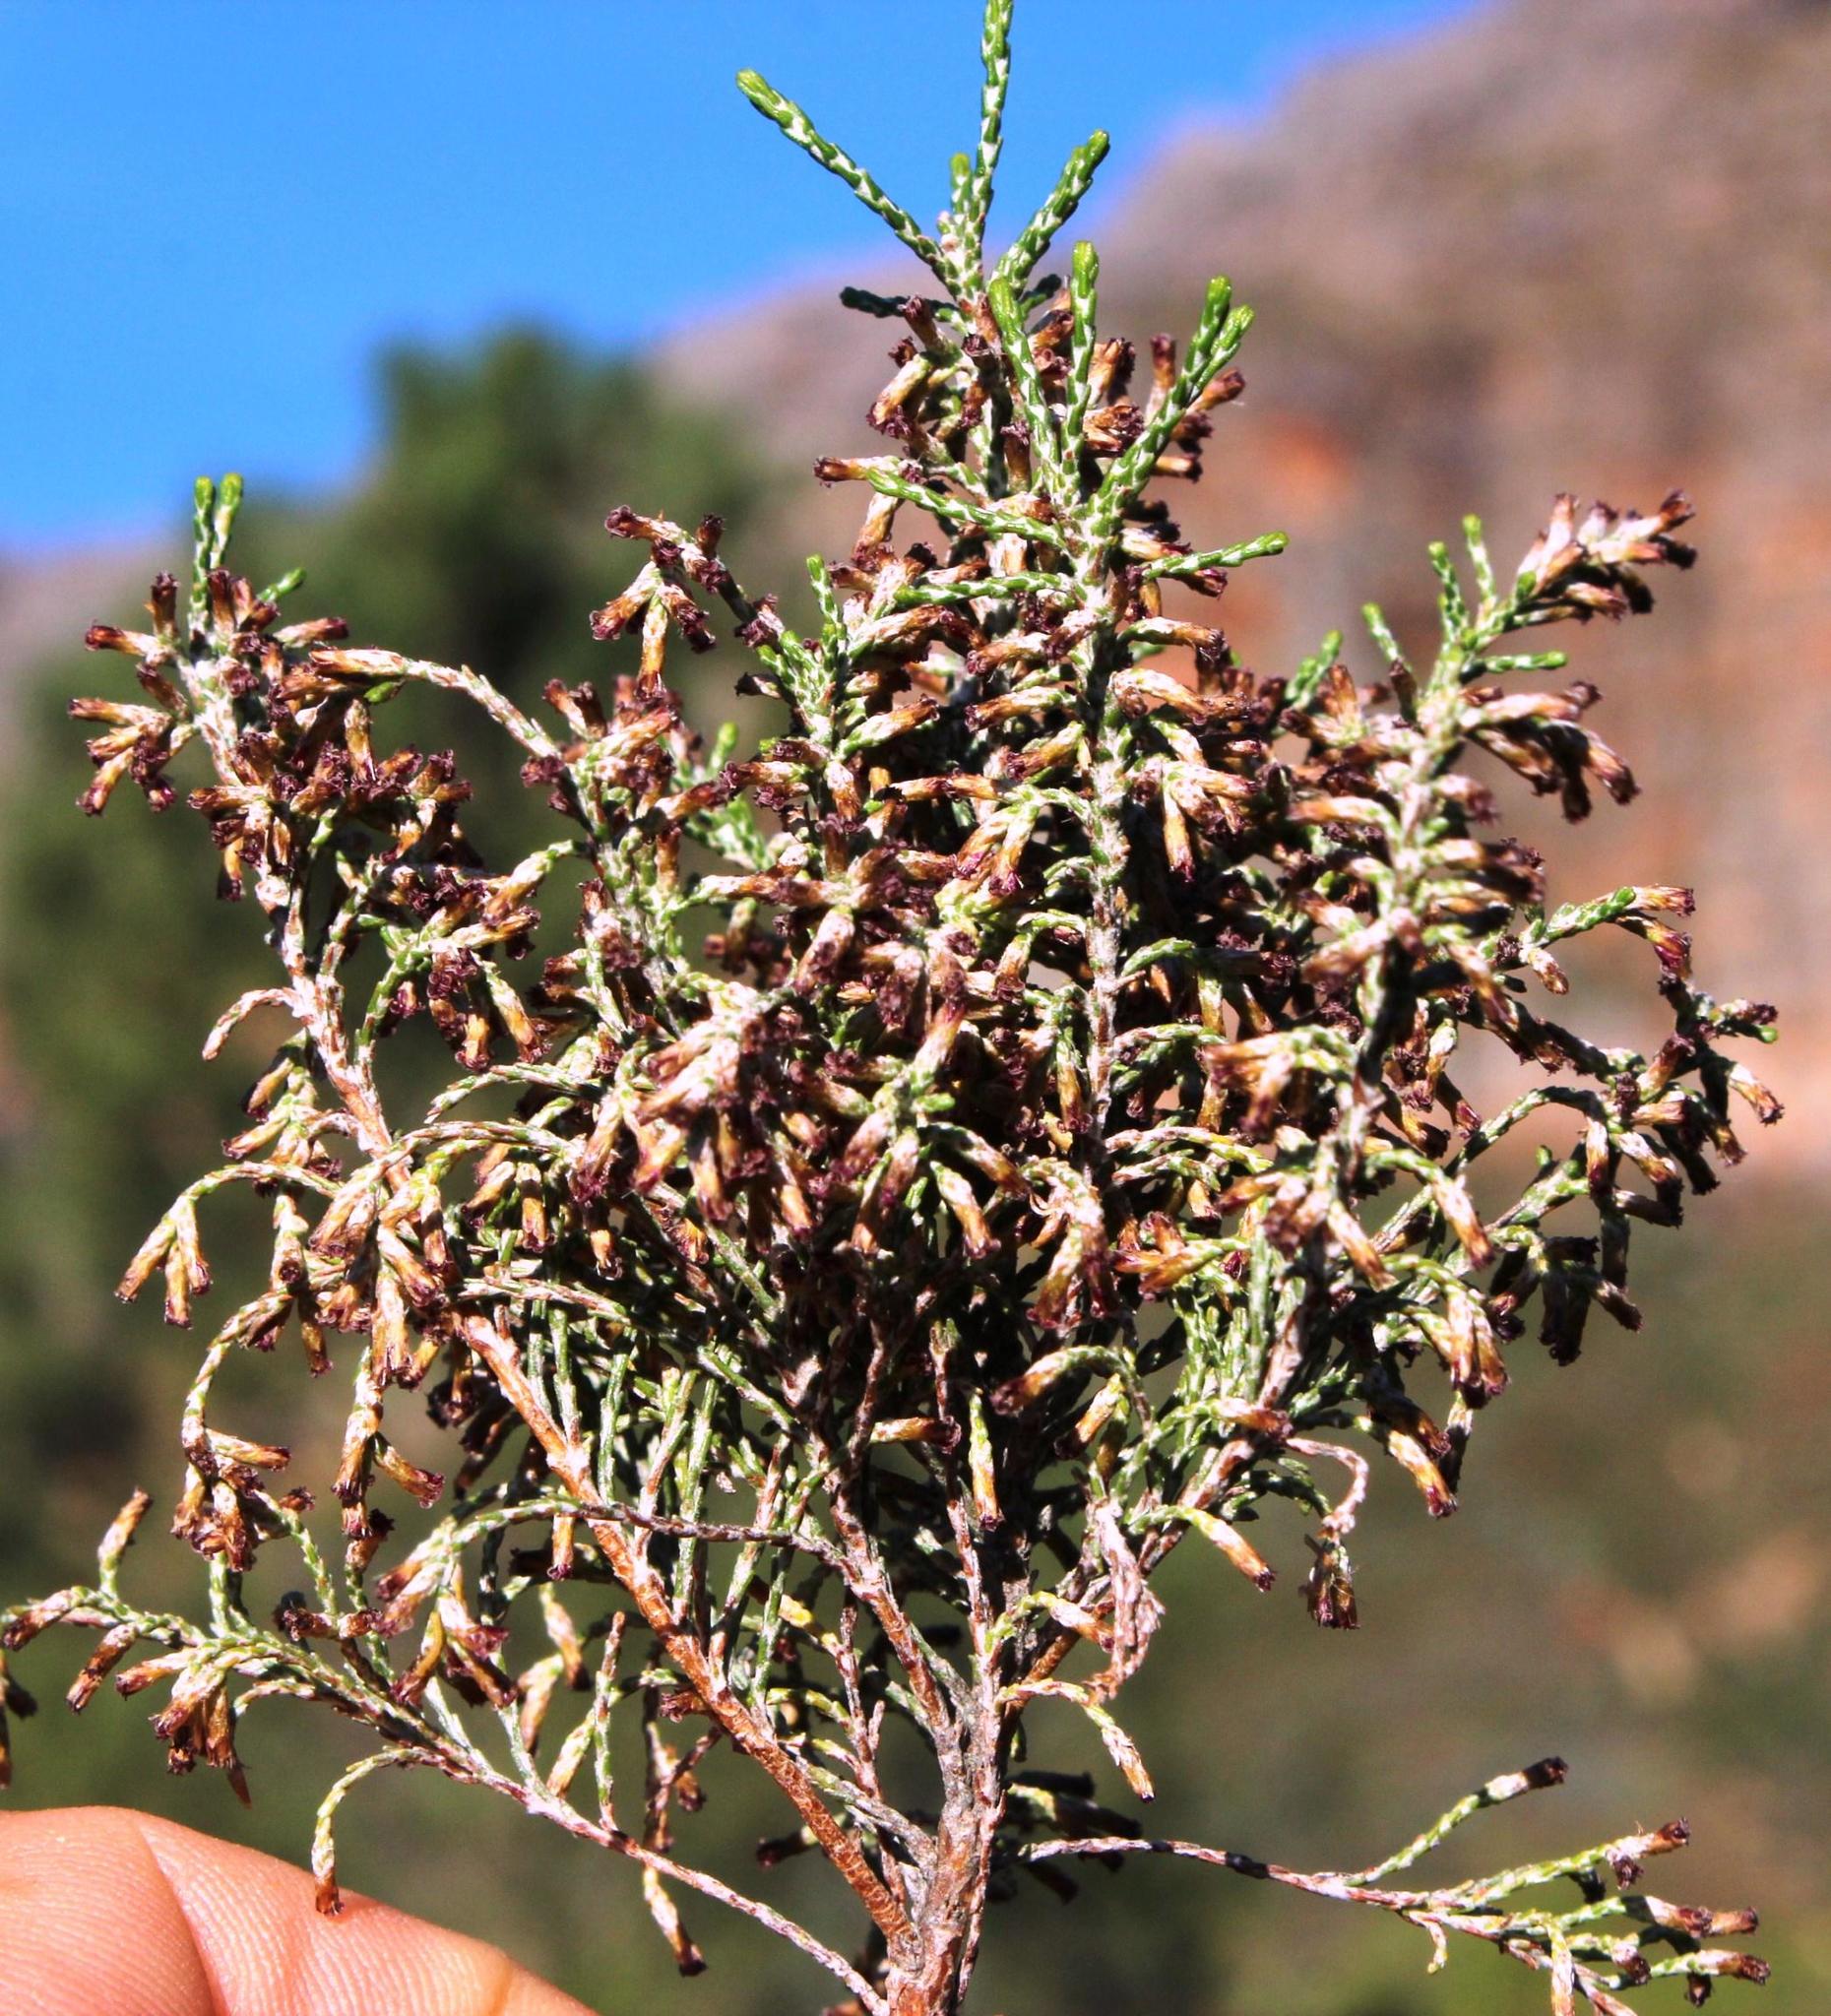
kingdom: Plantae
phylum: Tracheophyta
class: Magnoliopsida
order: Asterales
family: Asteraceae
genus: Dicerothamnus
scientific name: Dicerothamnus rhinocerotis
